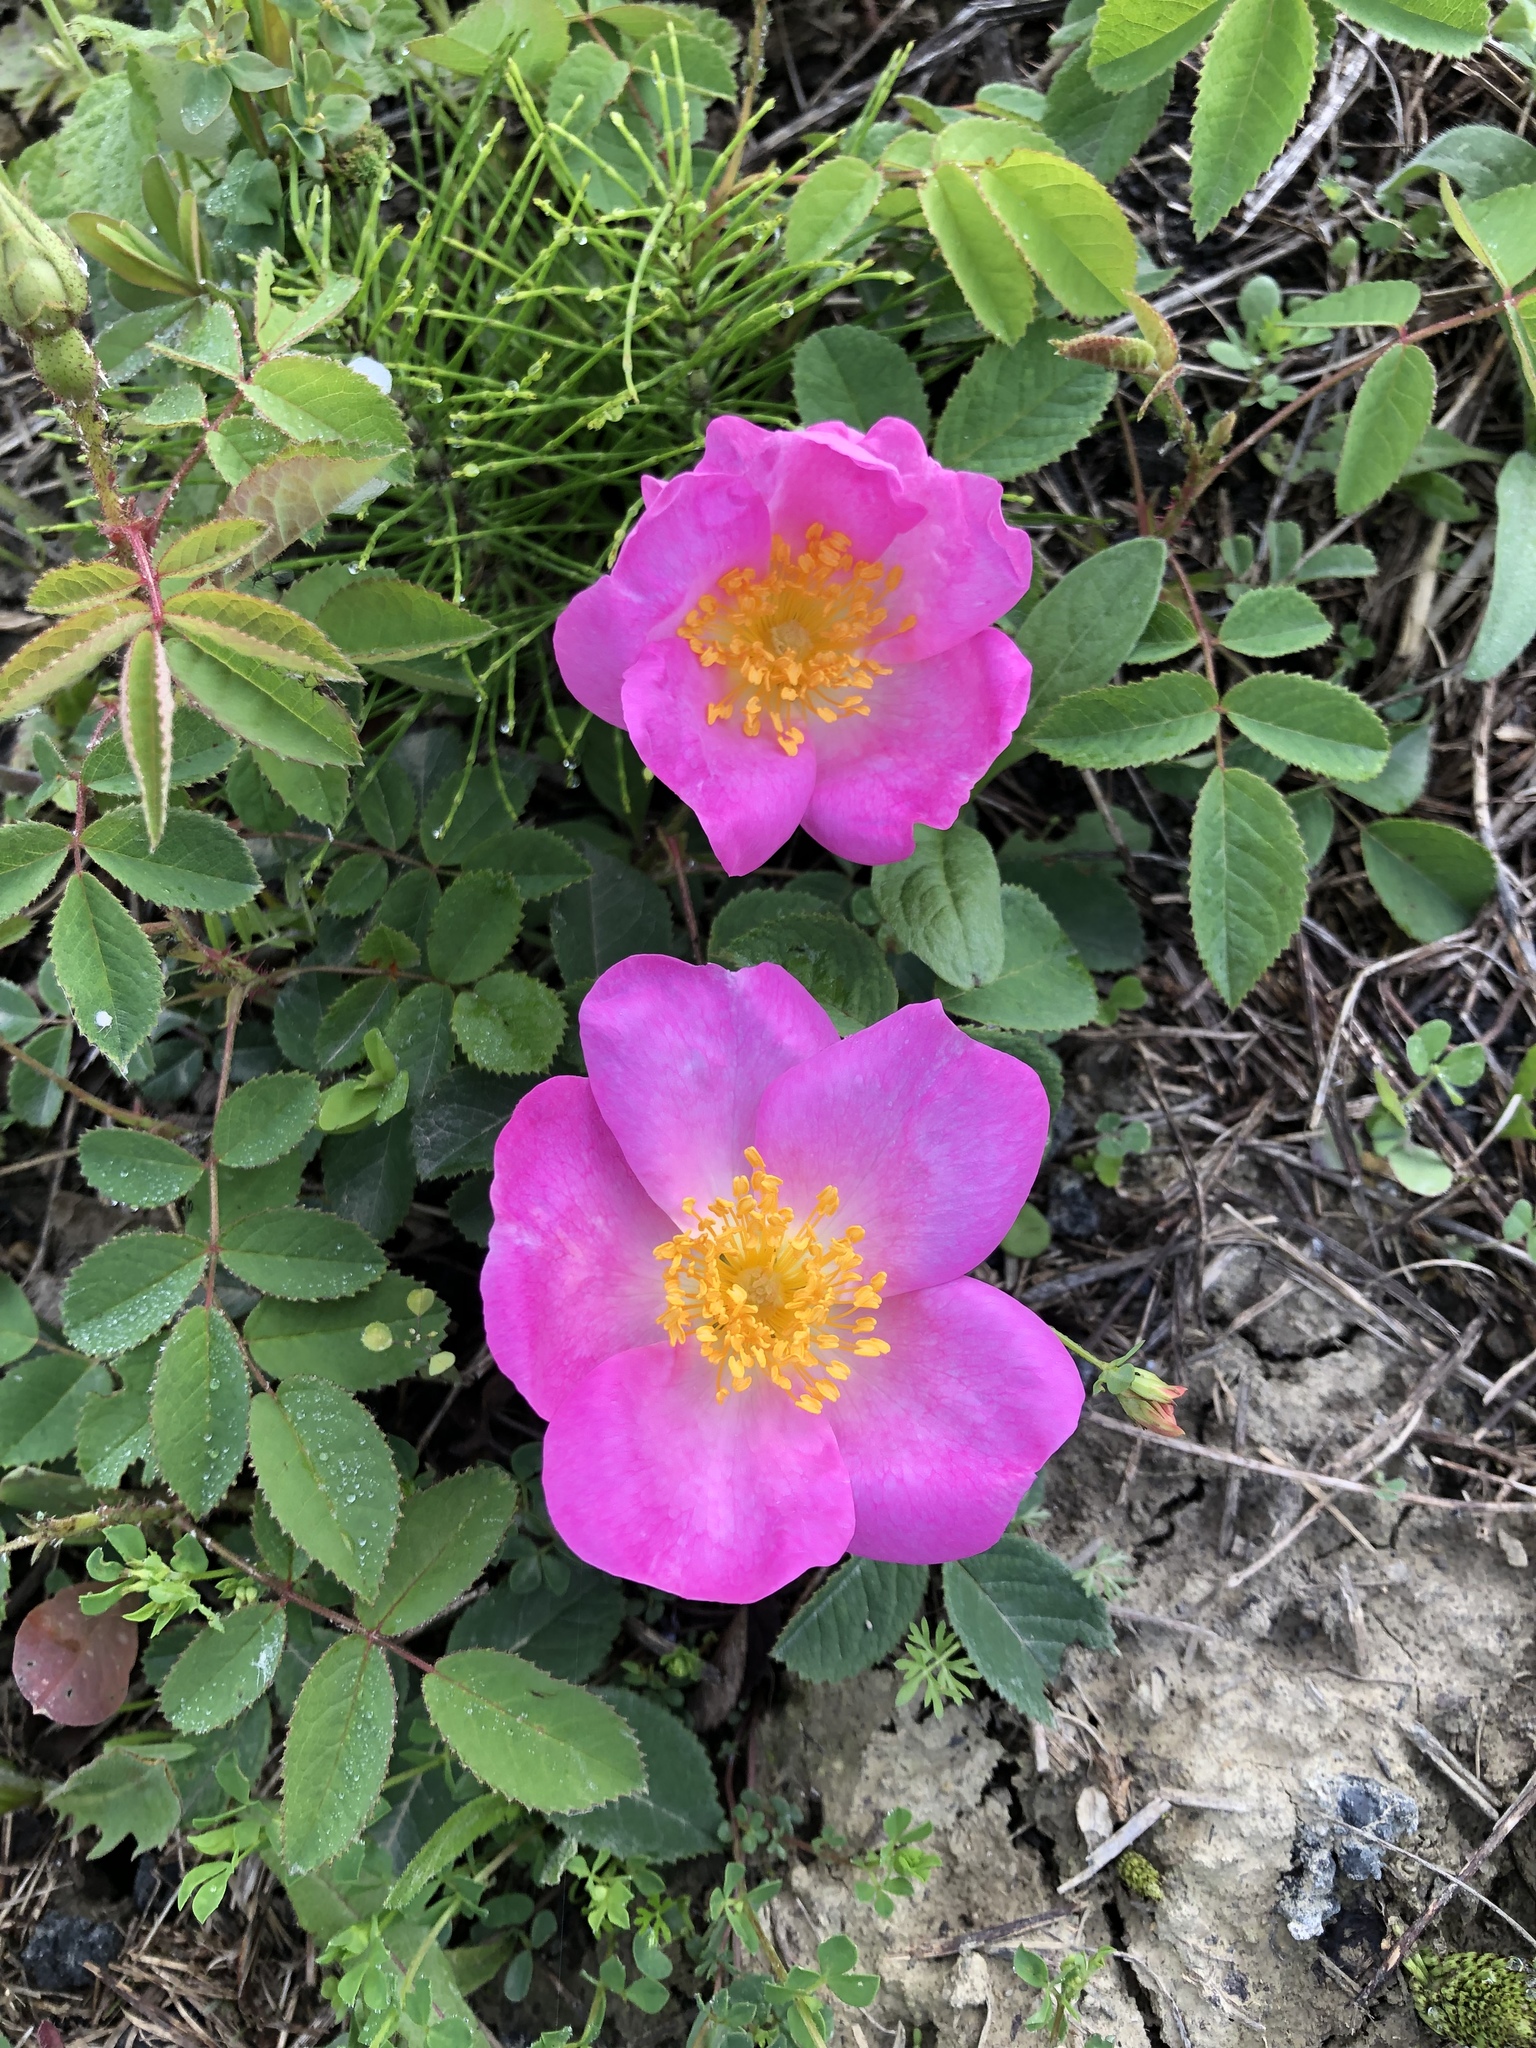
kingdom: Plantae
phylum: Tracheophyta
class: Magnoliopsida
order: Rosales
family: Rosaceae
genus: Rosa
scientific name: Rosa gallica
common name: French rose
